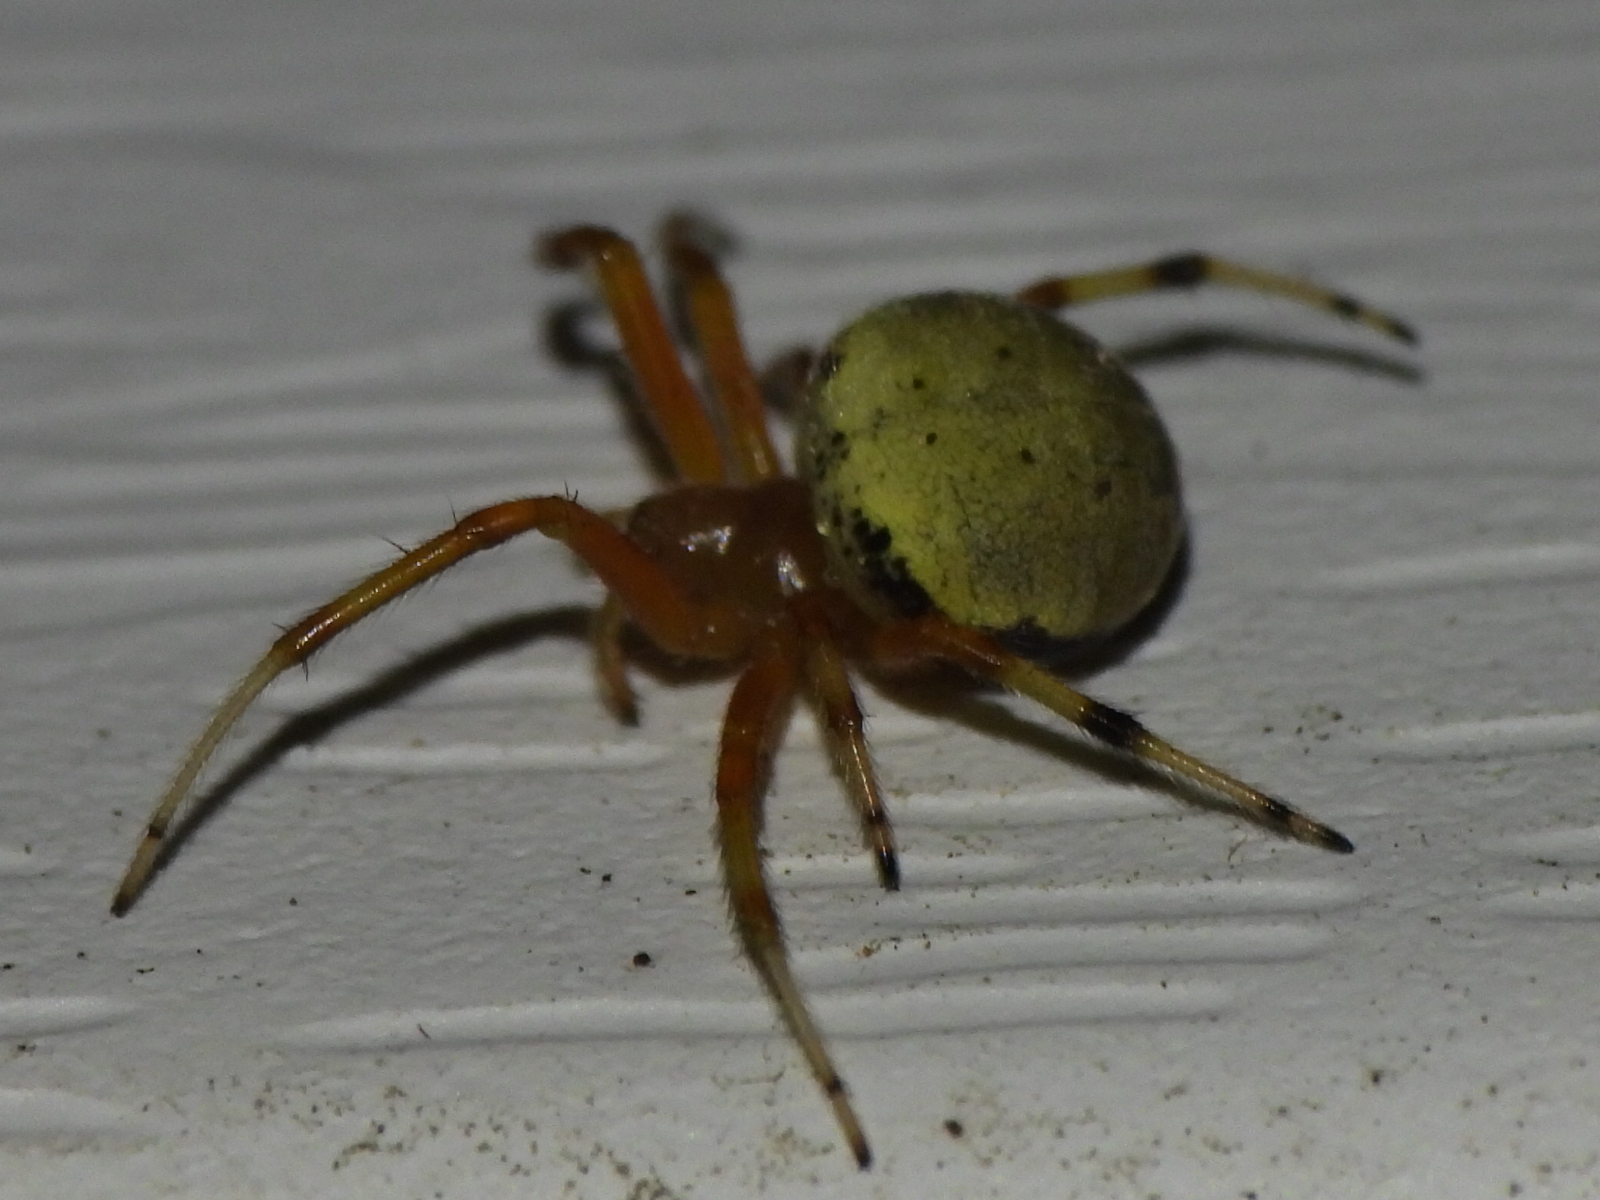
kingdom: Animalia
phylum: Arthropoda
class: Arachnida
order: Araneae
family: Araneidae
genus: Araneus
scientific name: Araneus thaddeus
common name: Lattice orbweaver
